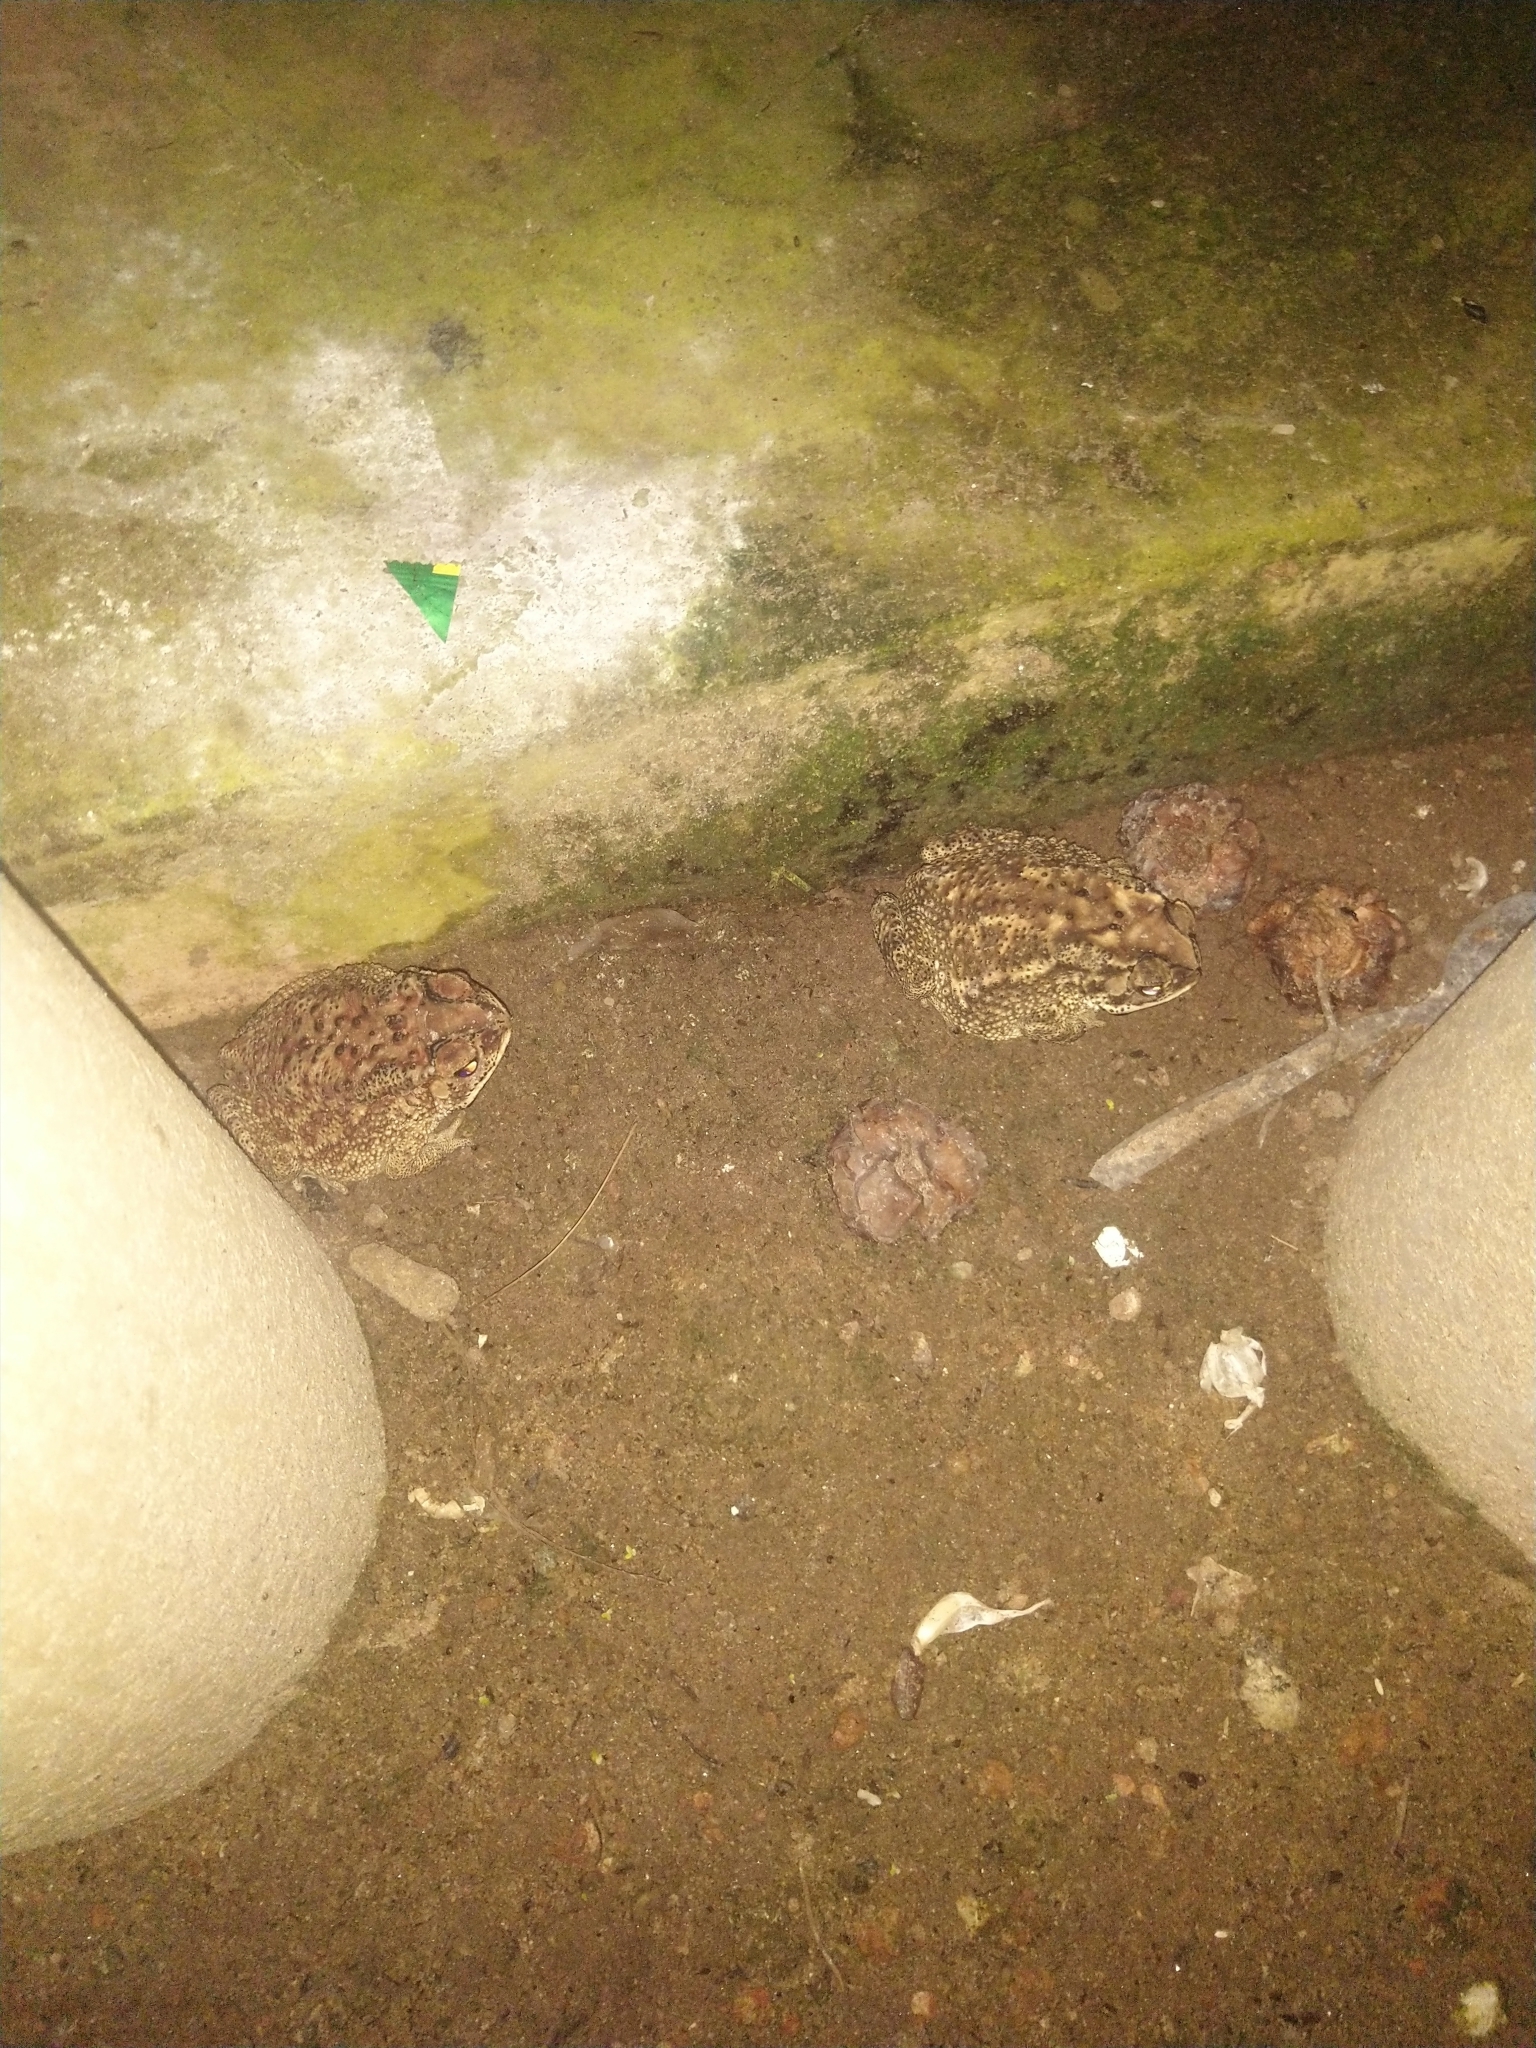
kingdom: Animalia
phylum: Chordata
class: Amphibia
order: Anura
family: Bufonidae
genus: Duttaphrynus
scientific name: Duttaphrynus melanostictus
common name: Common sunda toad
